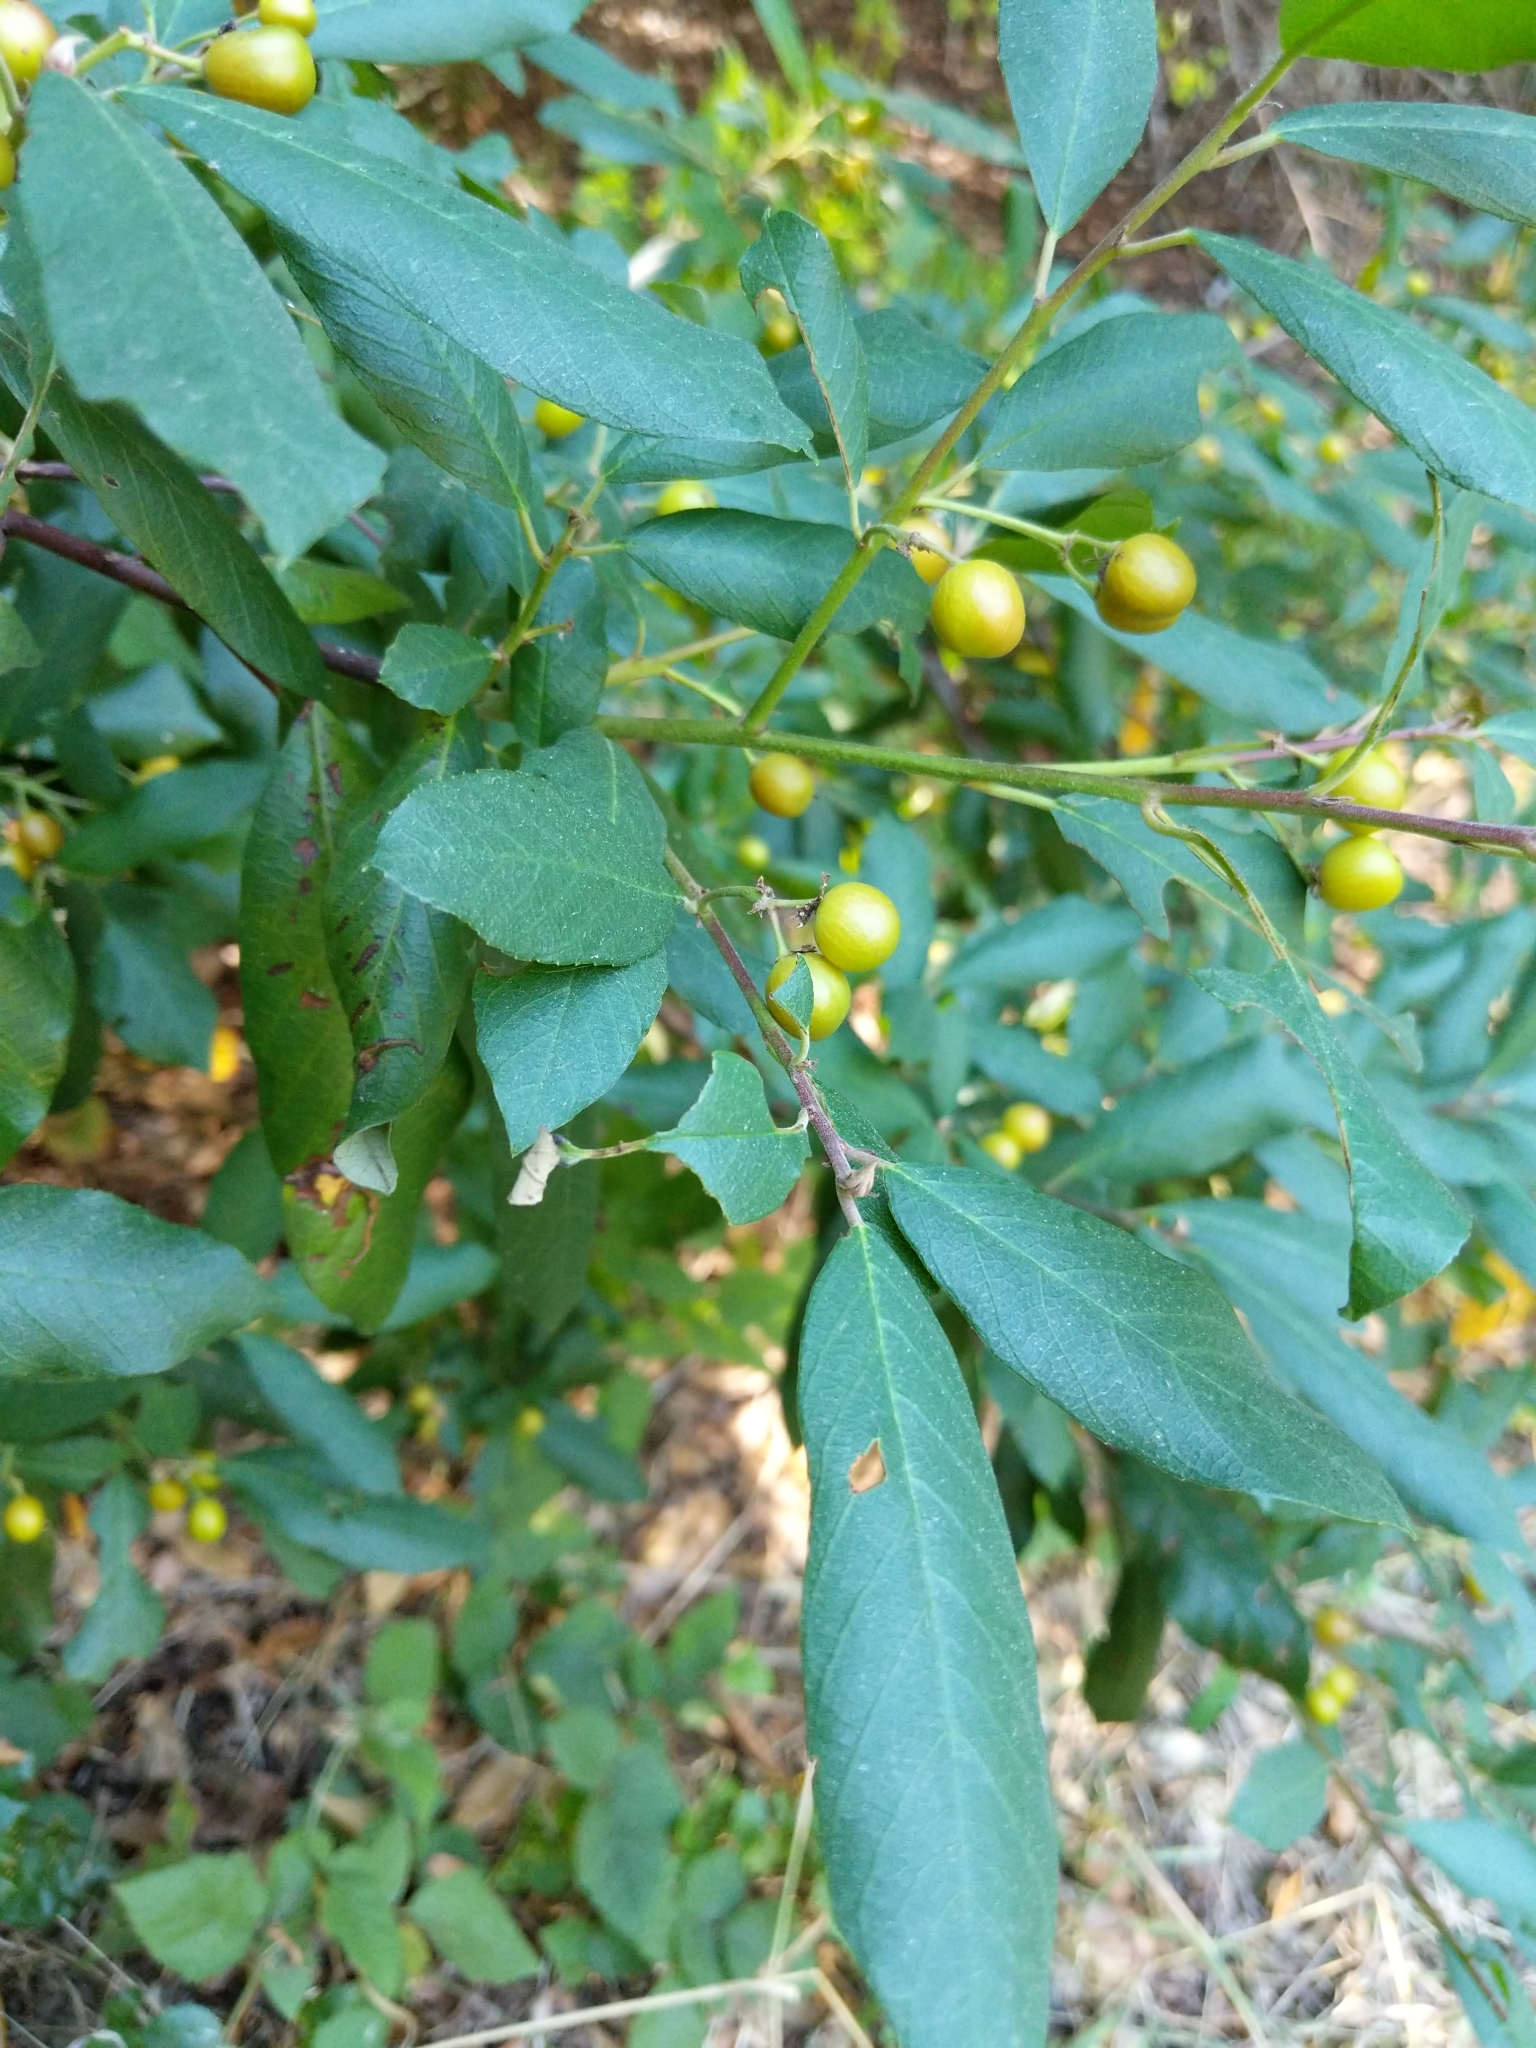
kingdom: Plantae
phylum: Tracheophyta
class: Magnoliopsida
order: Rosales
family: Rhamnaceae
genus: Frangula
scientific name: Frangula californica
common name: California buckthorn
